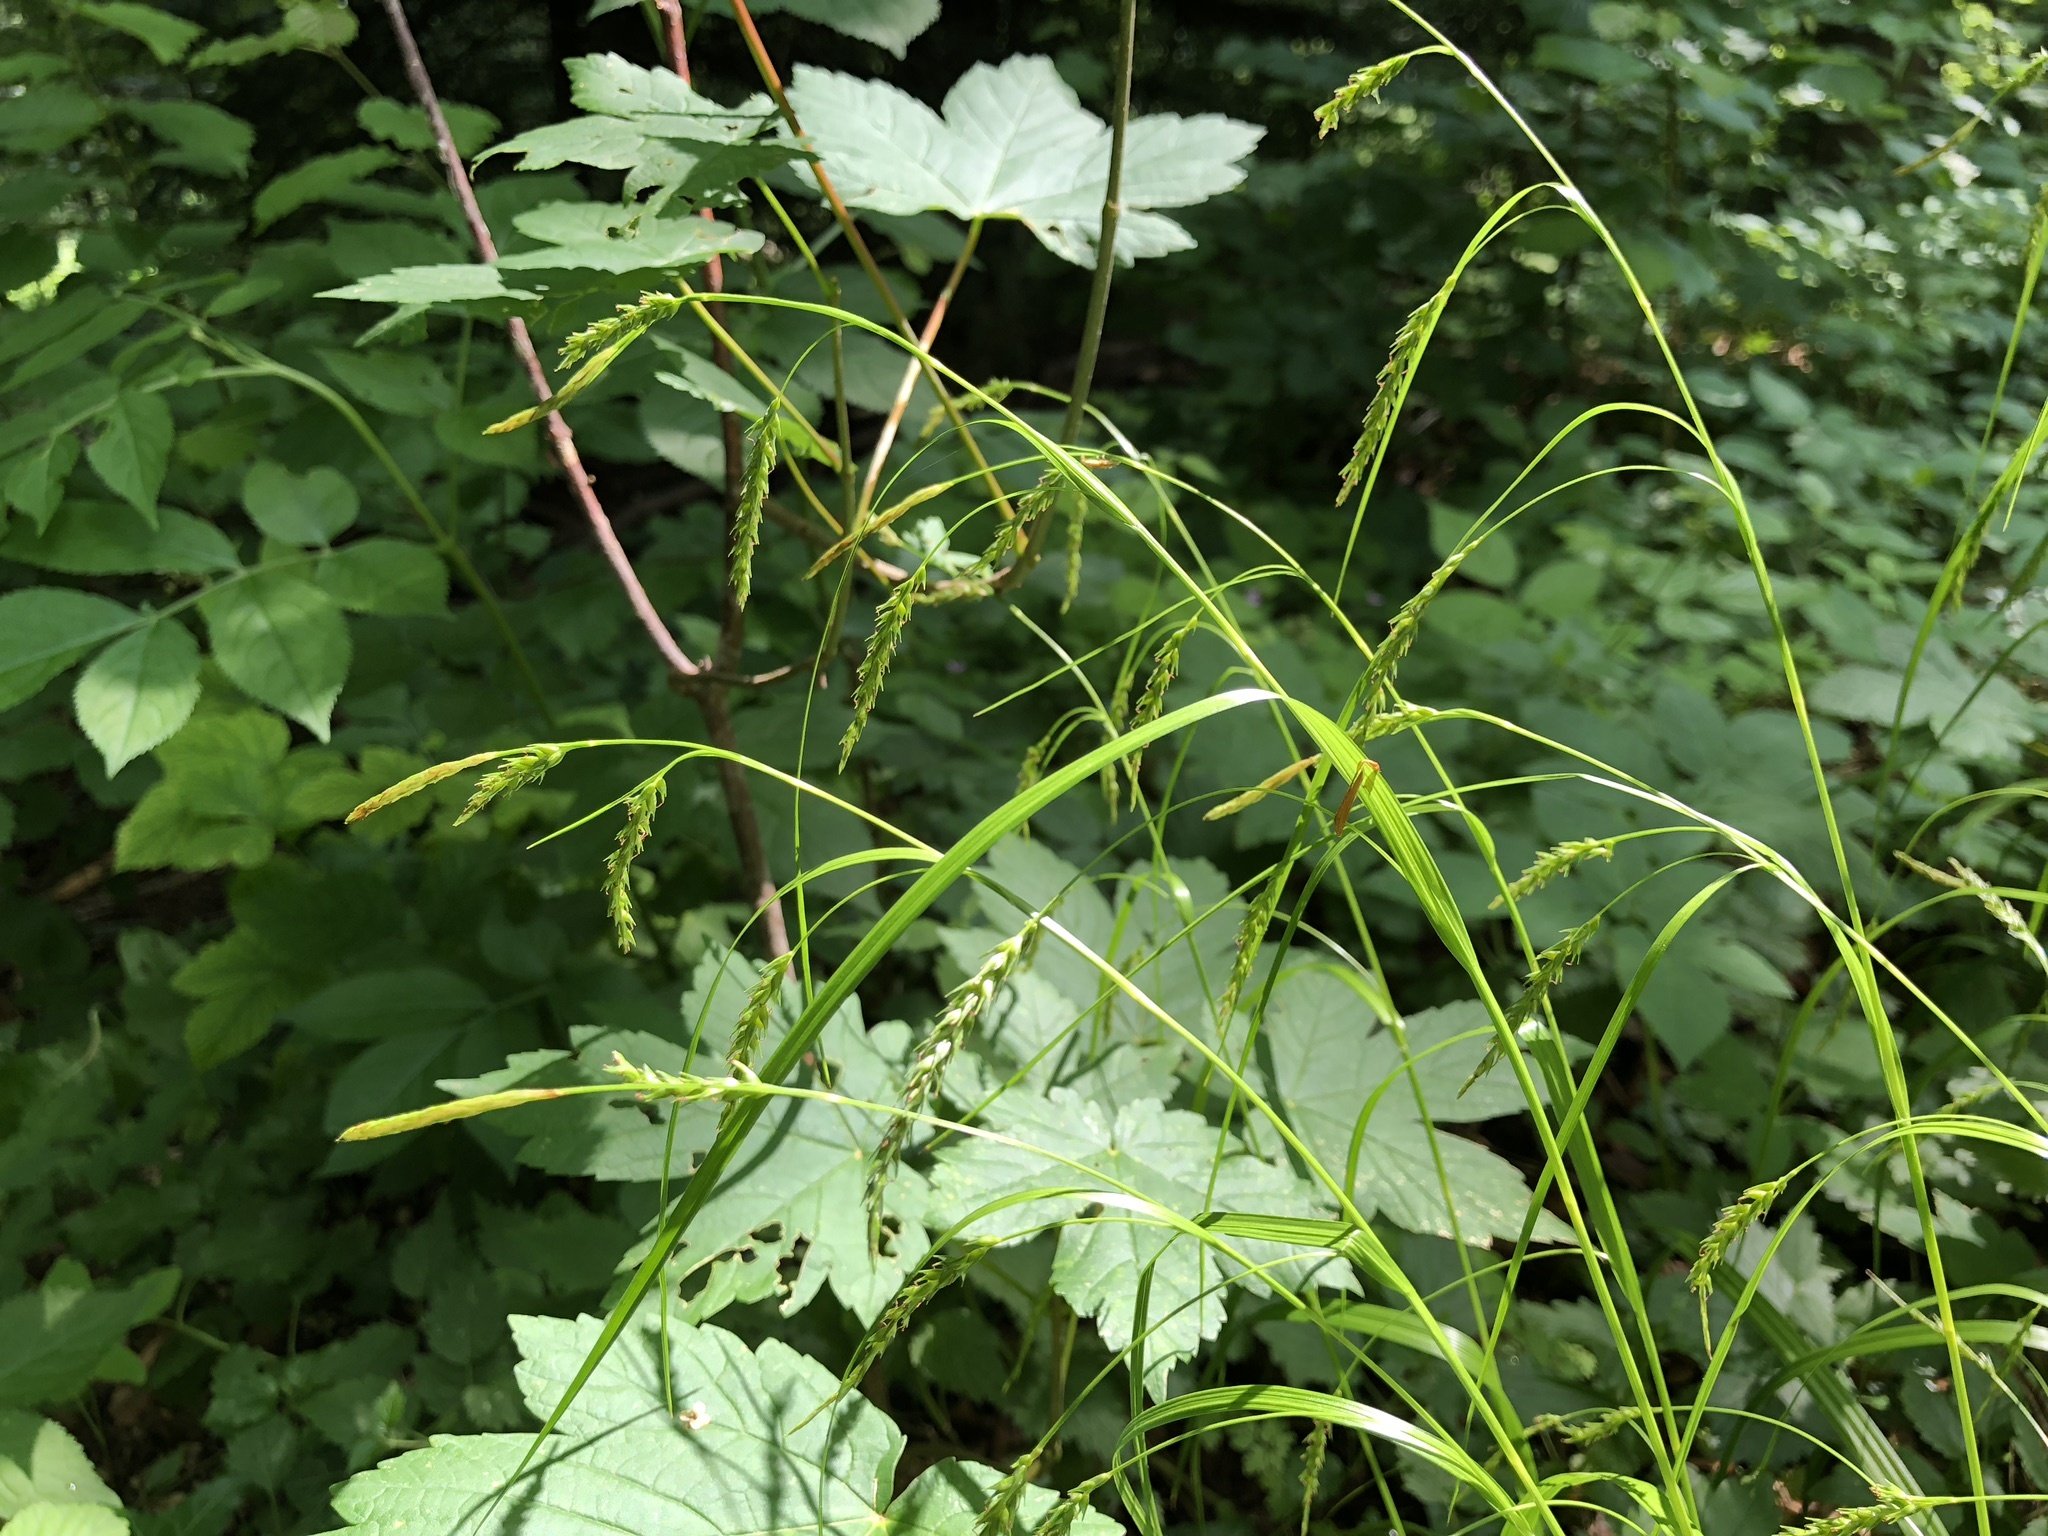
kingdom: Plantae
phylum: Tracheophyta
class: Liliopsida
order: Poales
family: Cyperaceae
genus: Carex
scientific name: Carex sylvatica
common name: Wood-sedge
